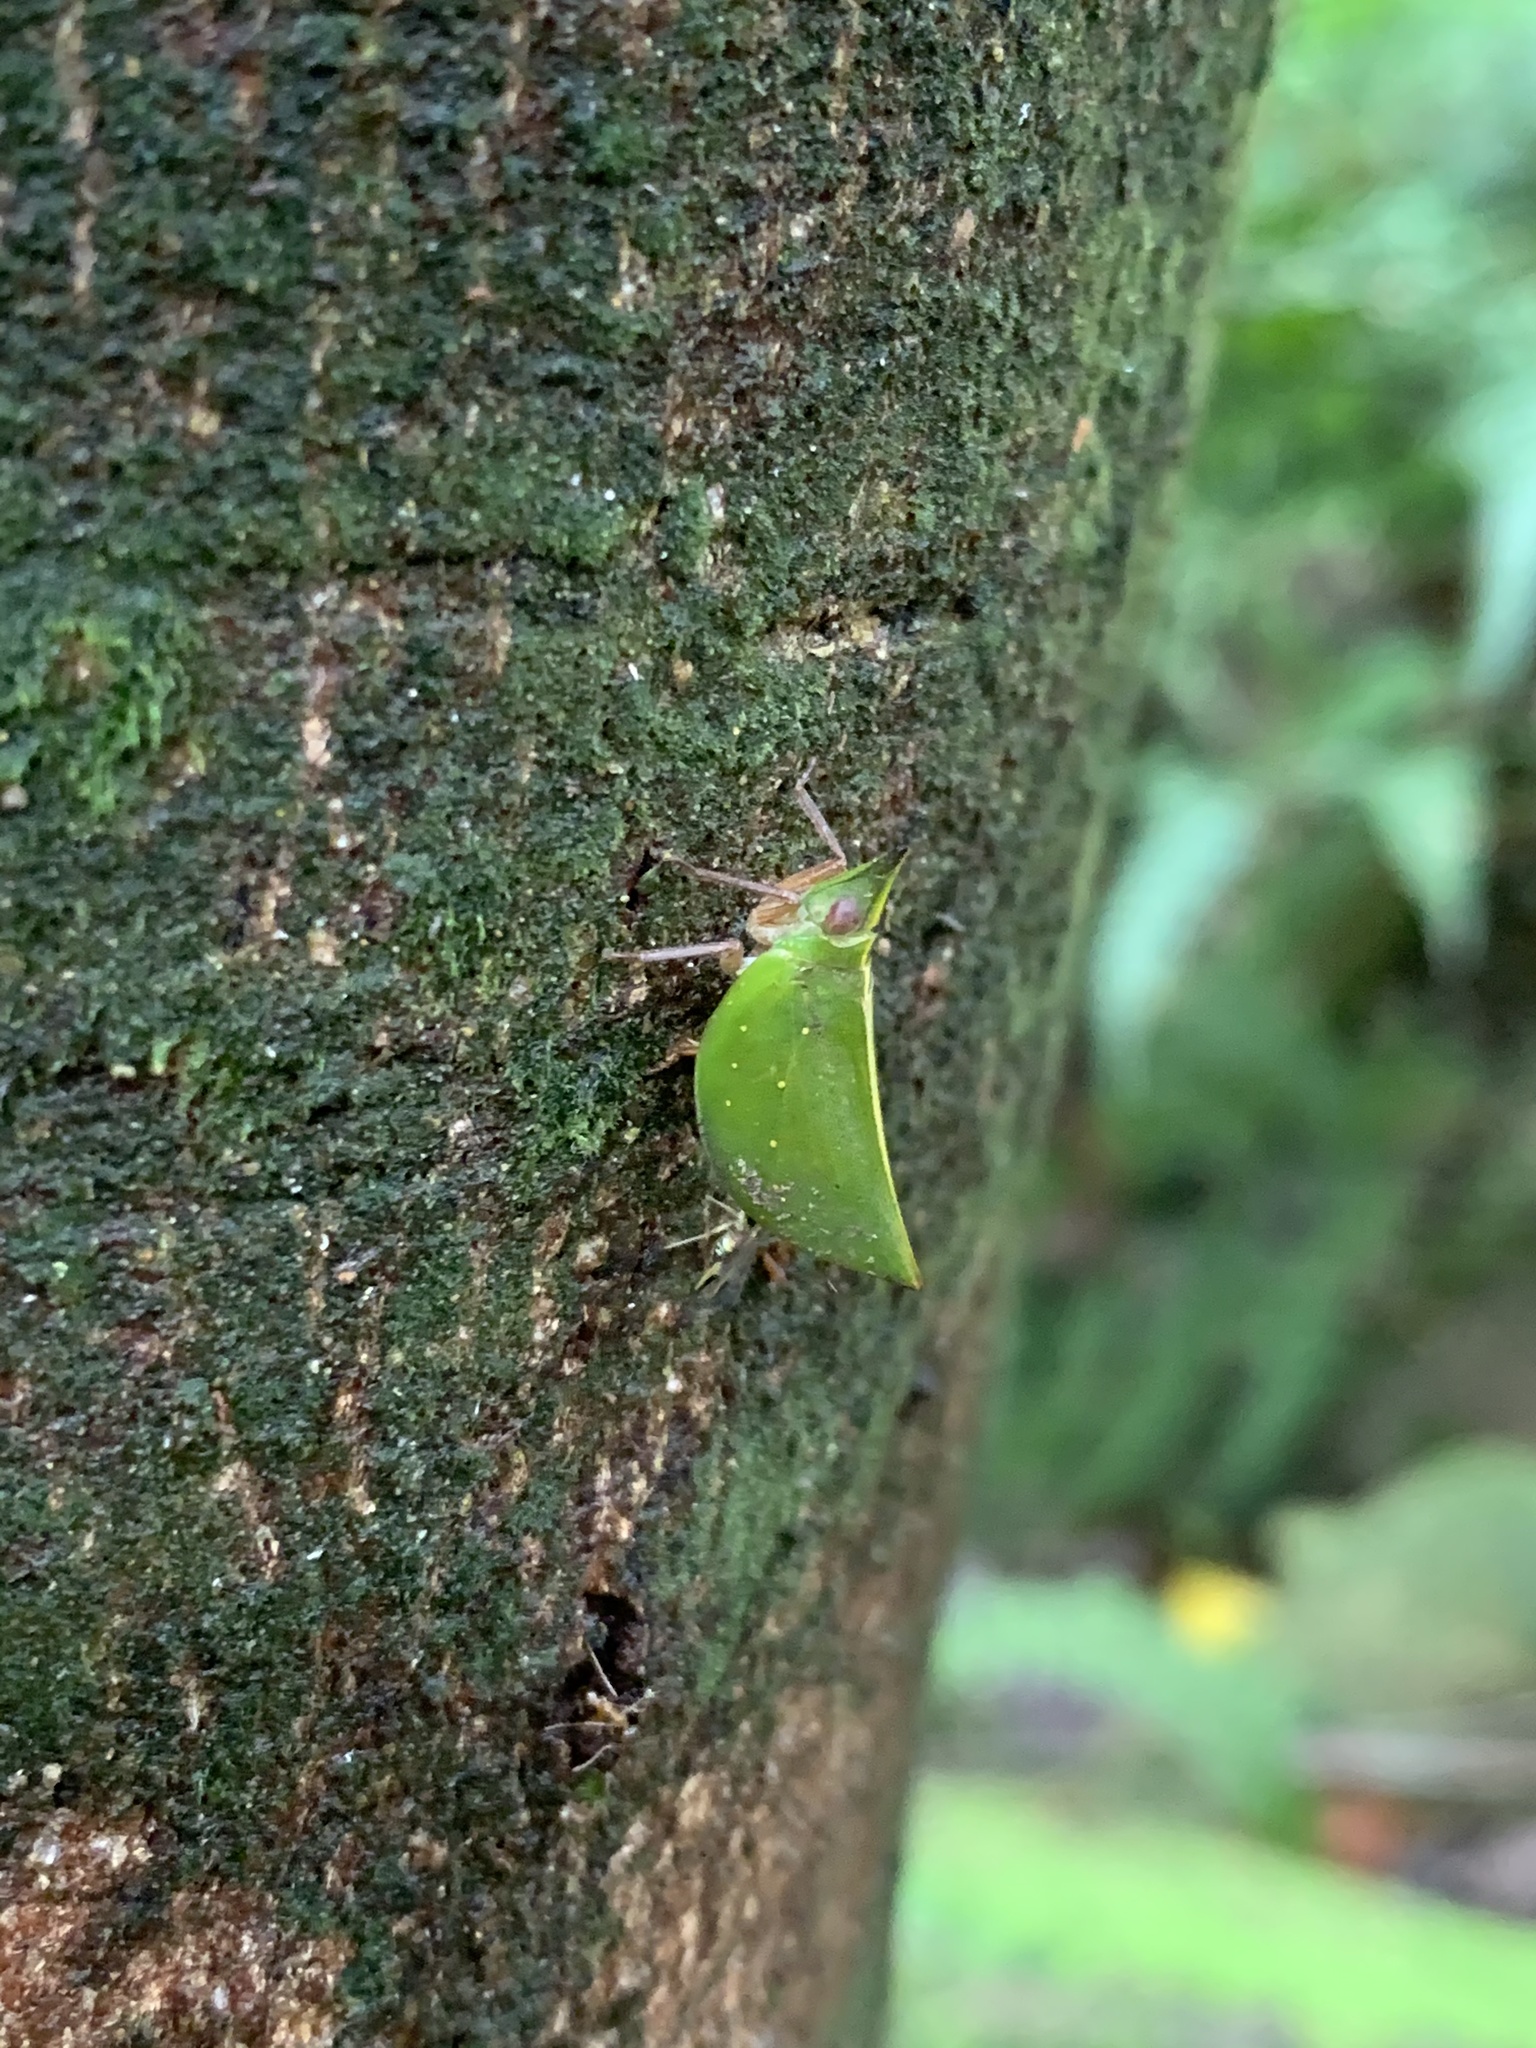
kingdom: Animalia
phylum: Arthropoda
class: Insecta
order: Hemiptera
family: Nogodinidae
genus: Tonga
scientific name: Tonga westwoodi
